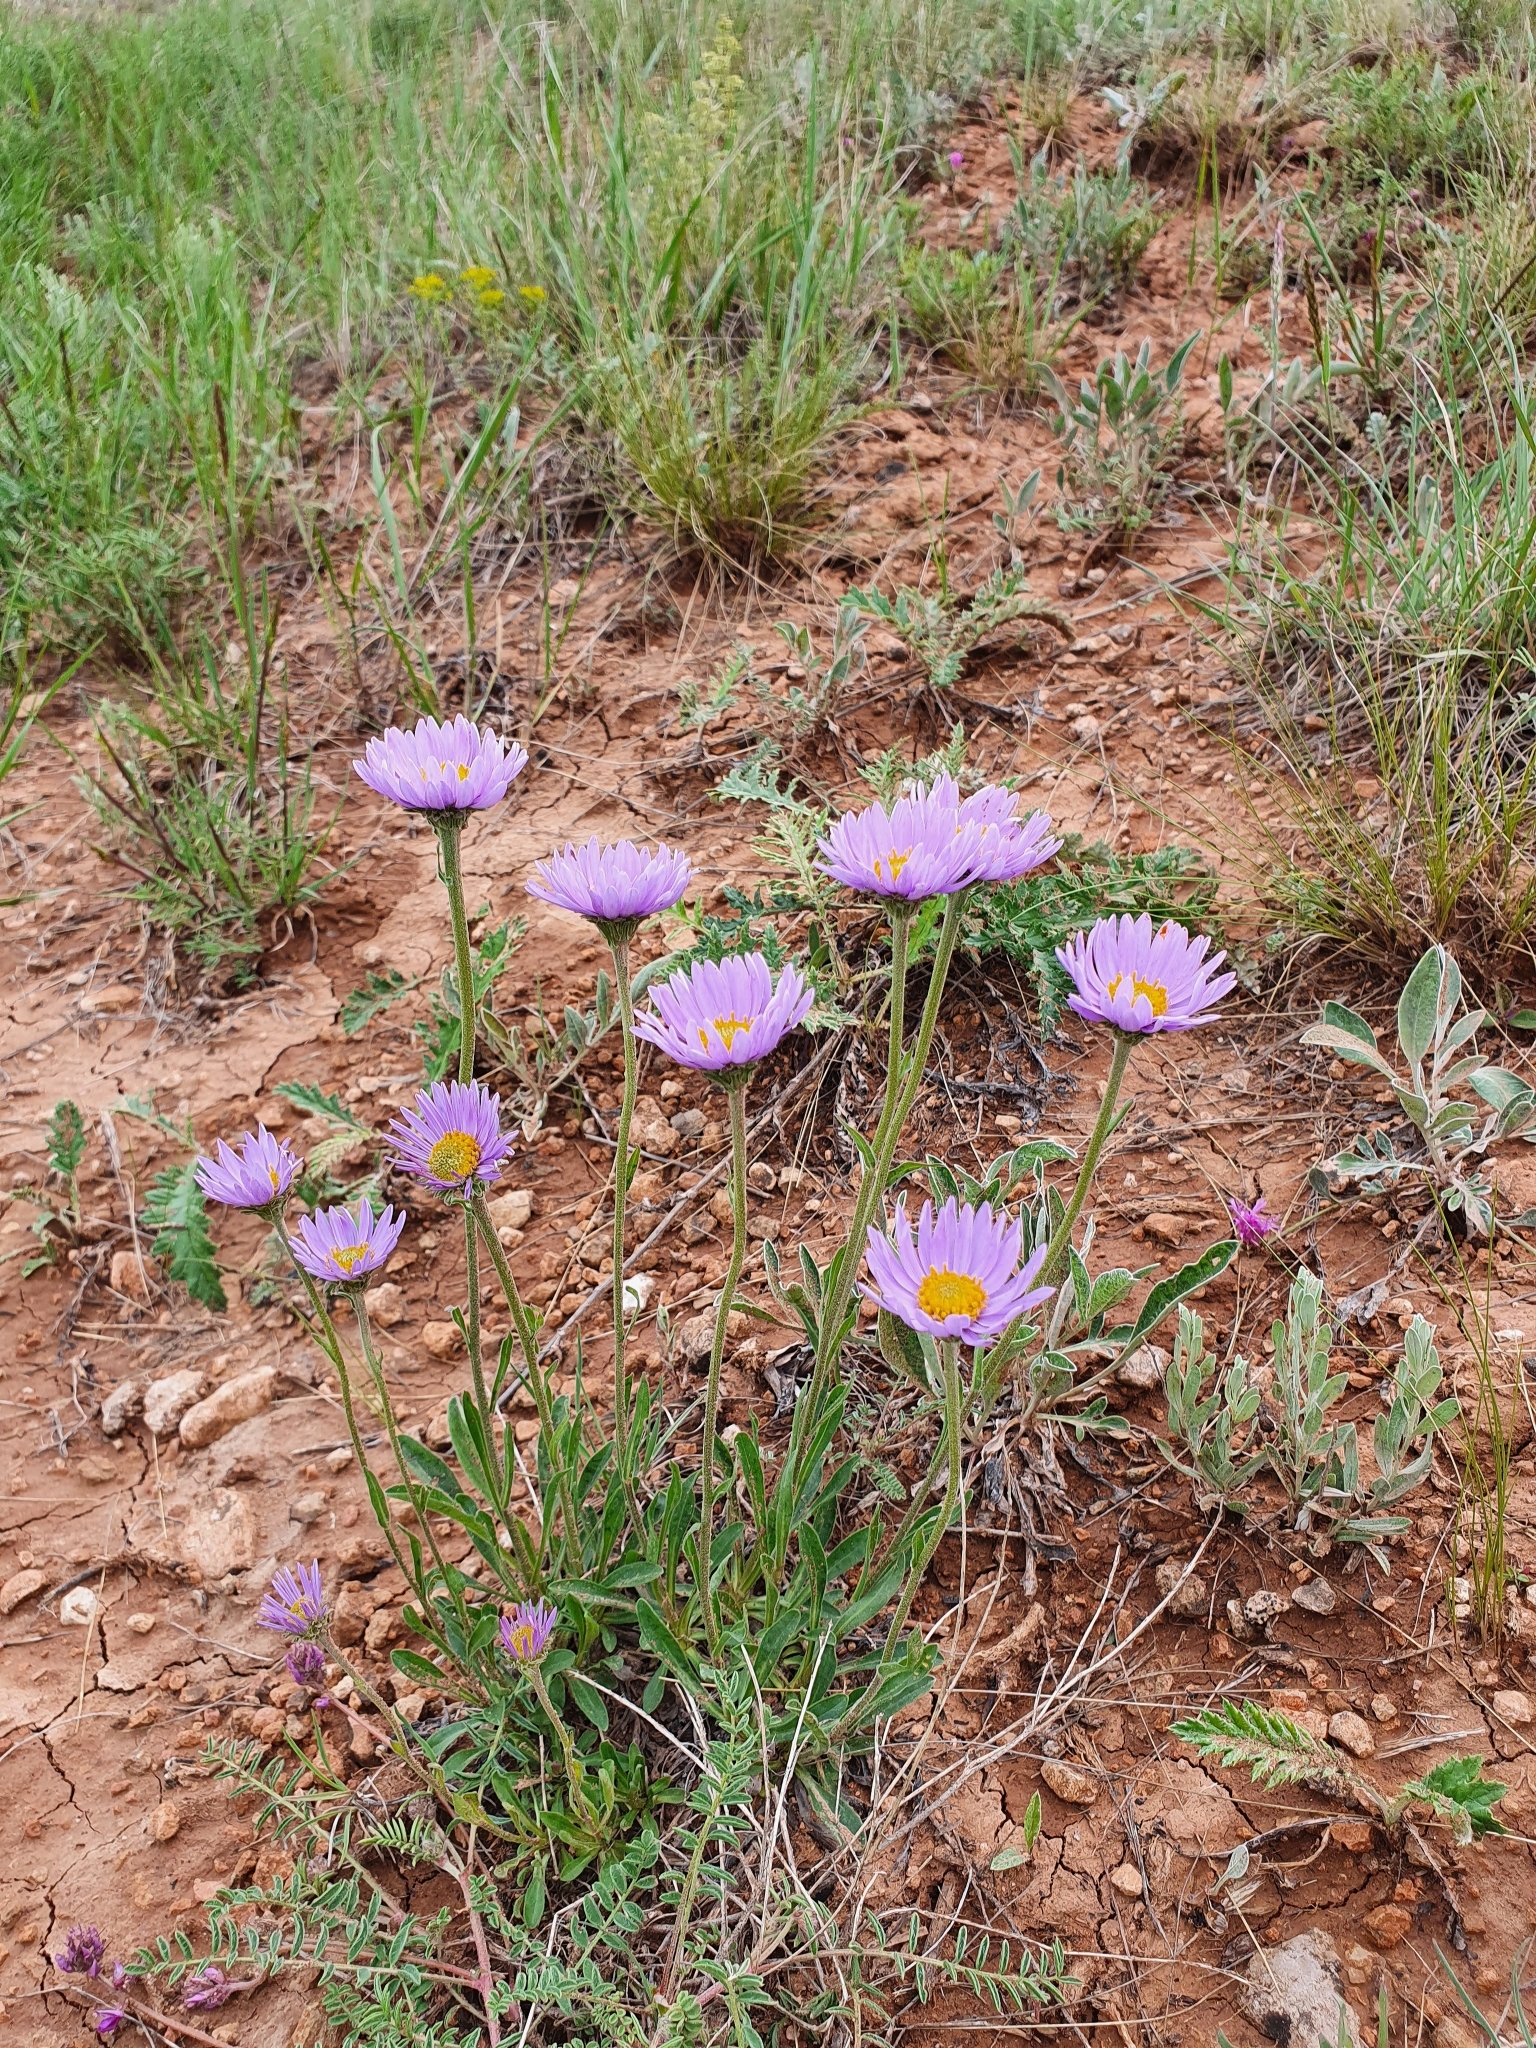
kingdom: Plantae
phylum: Tracheophyta
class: Magnoliopsida
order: Asterales
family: Asteraceae
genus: Aster
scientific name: Aster alpinus
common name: Alpine aster
